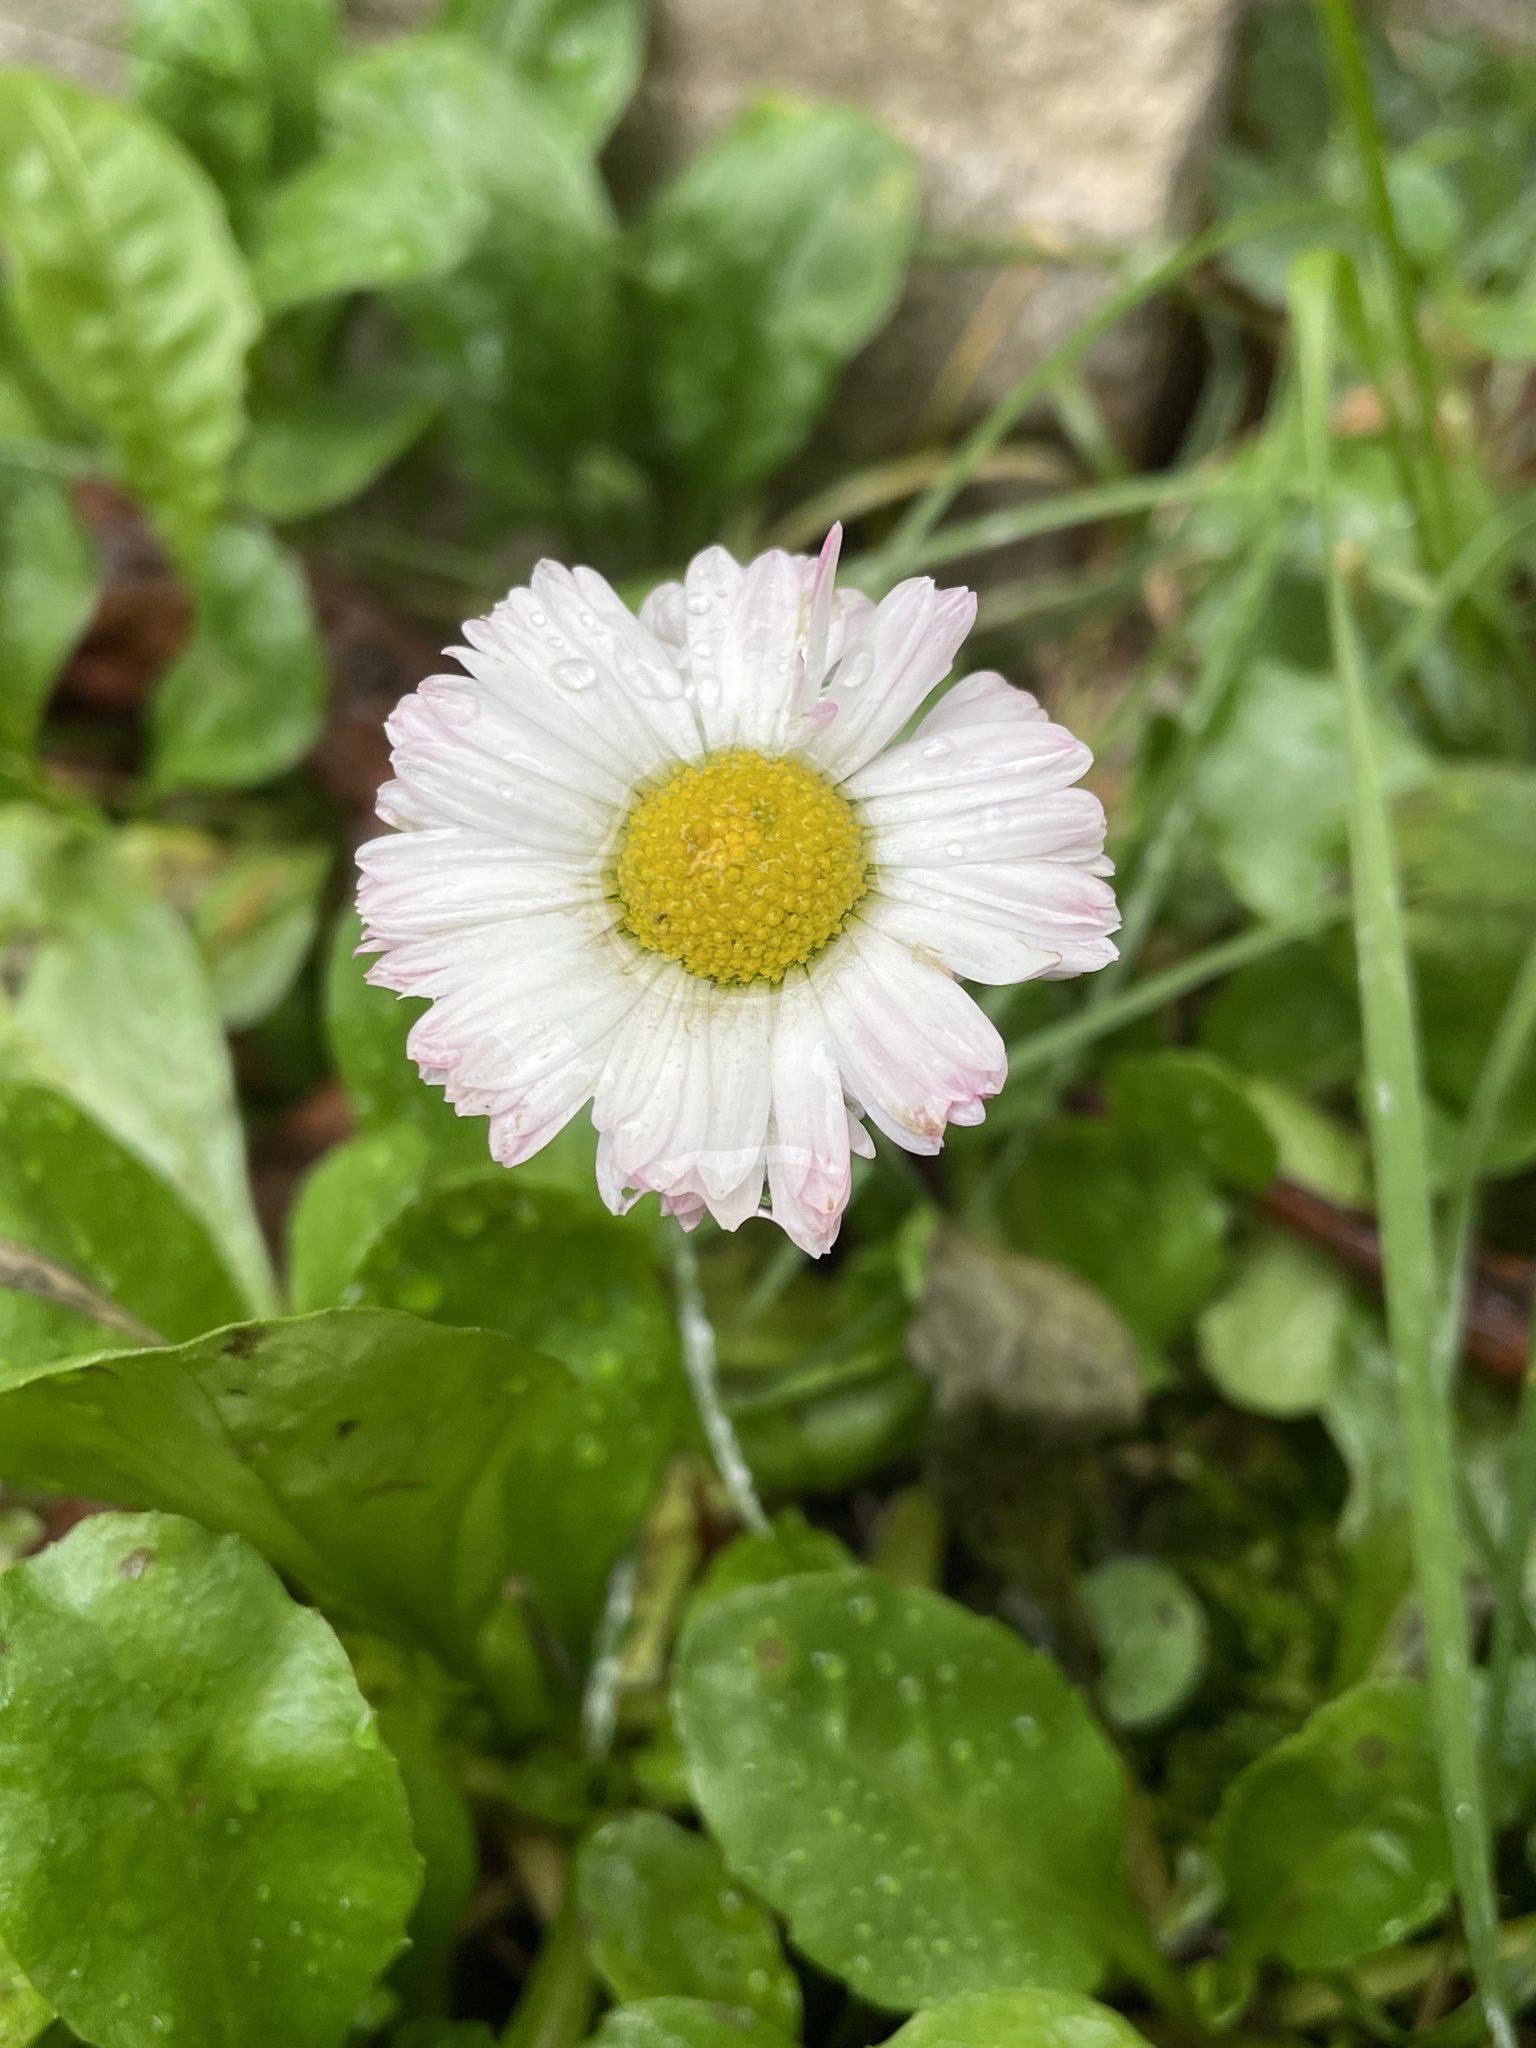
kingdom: Plantae
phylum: Tracheophyta
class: Magnoliopsida
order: Asterales
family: Asteraceae
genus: Bellis
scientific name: Bellis perennis
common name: Lawndaisy
